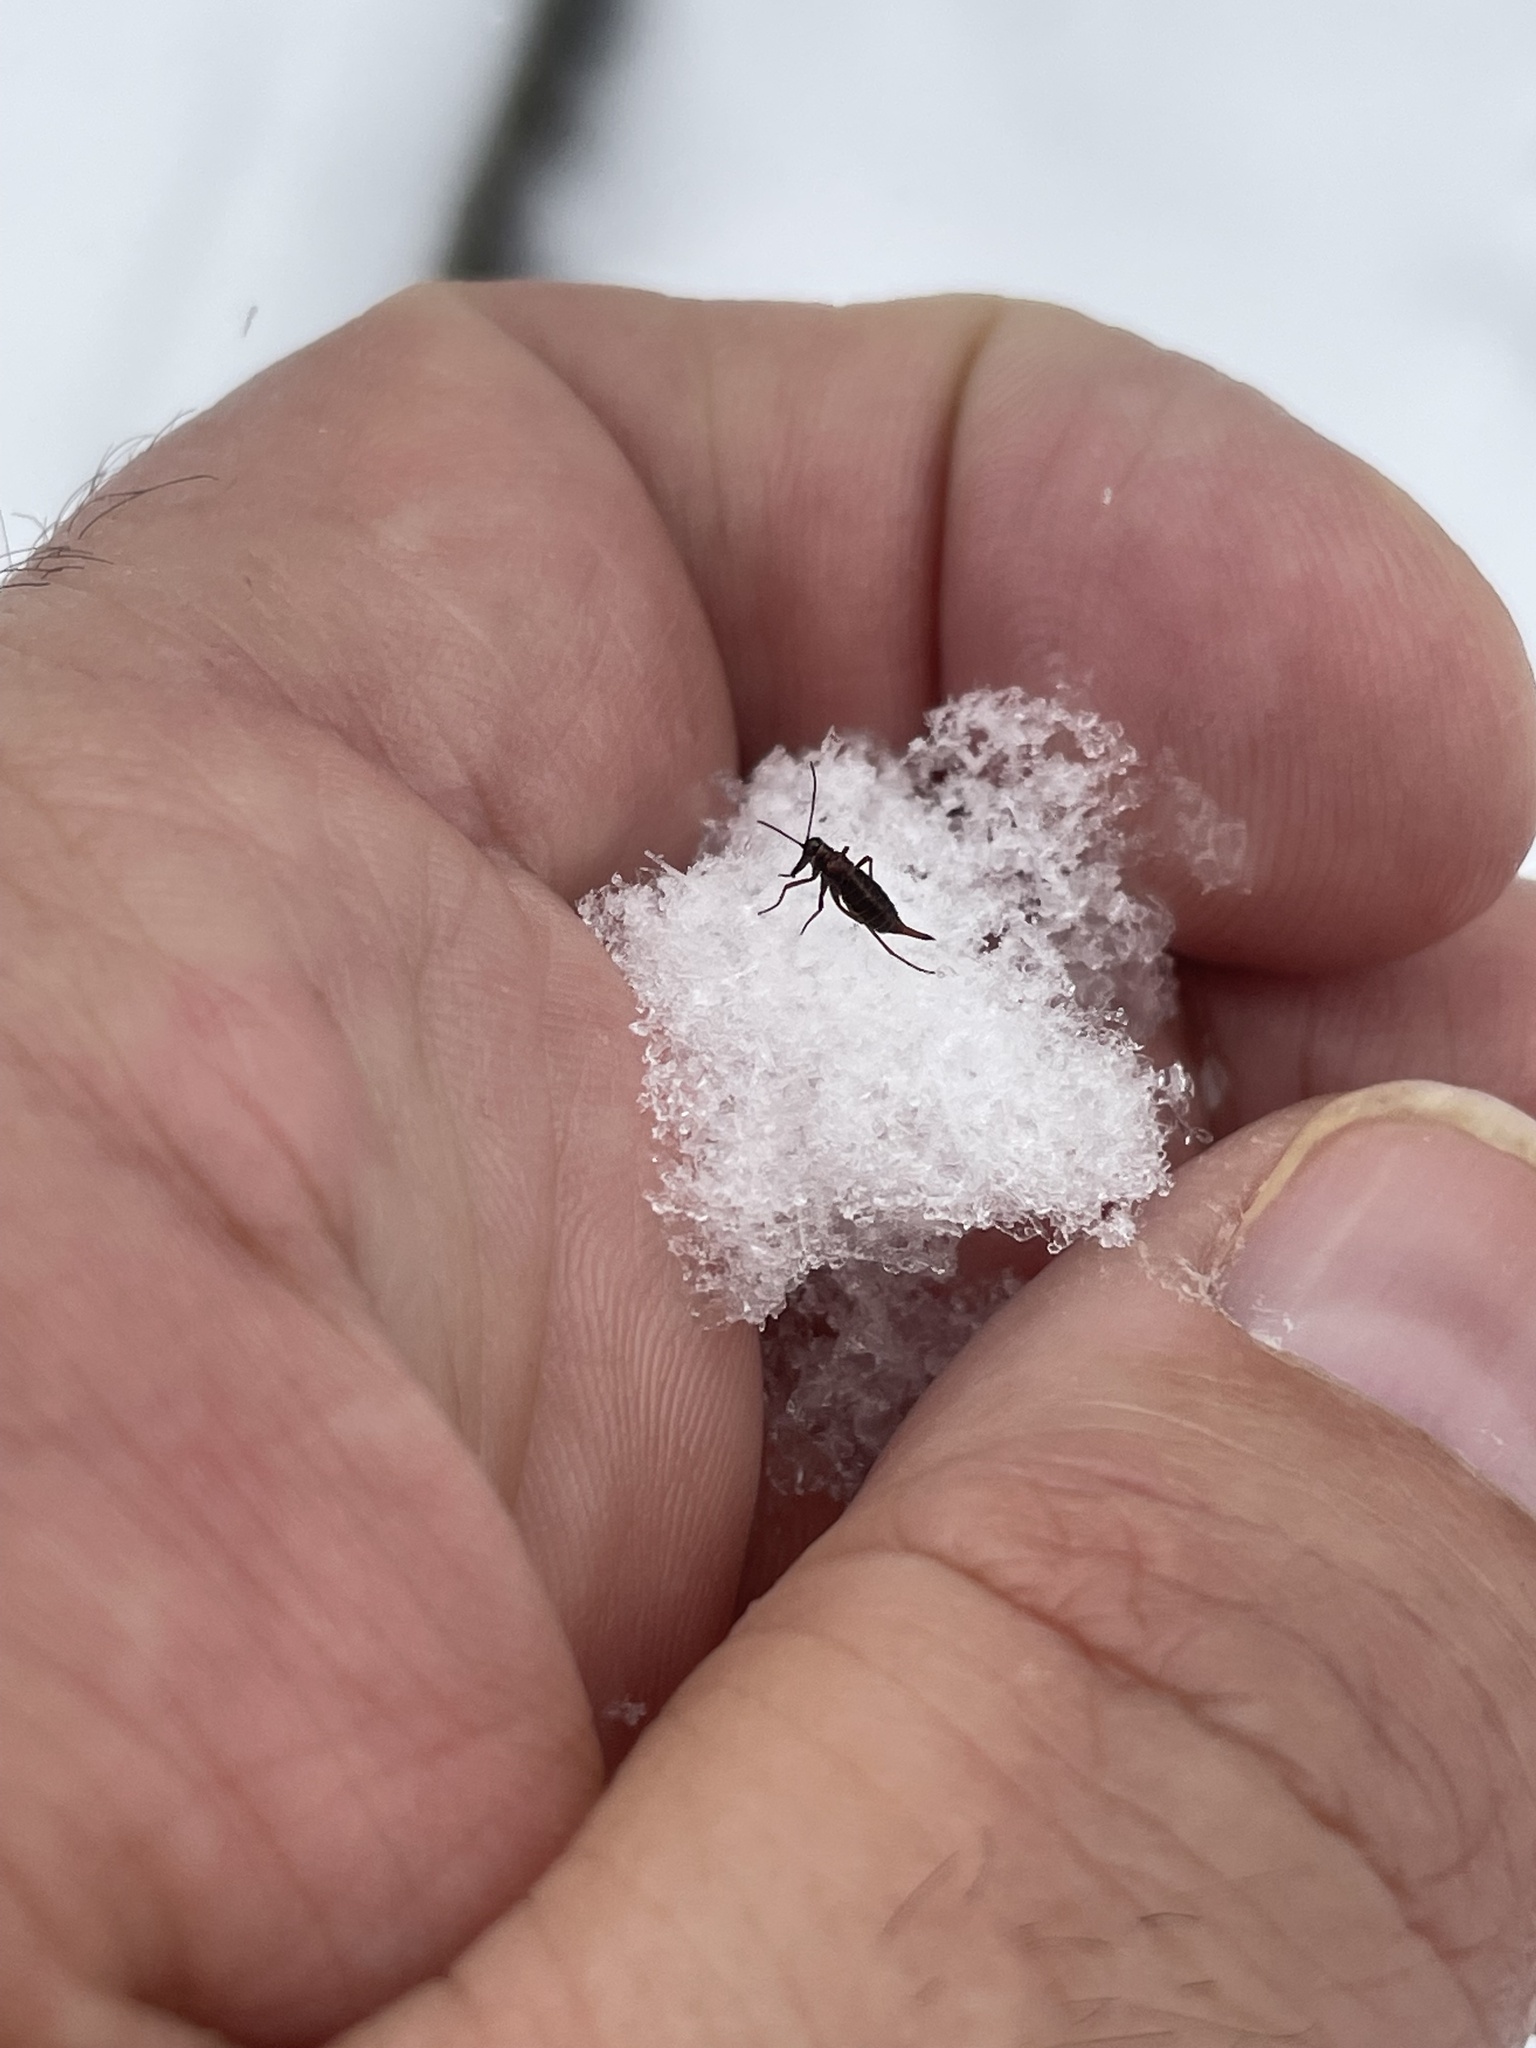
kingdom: Animalia
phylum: Arthropoda
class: Insecta
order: Mecoptera
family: Boreidae
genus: Boreus
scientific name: Boreus nivoriundus
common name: Snow-born boreus
